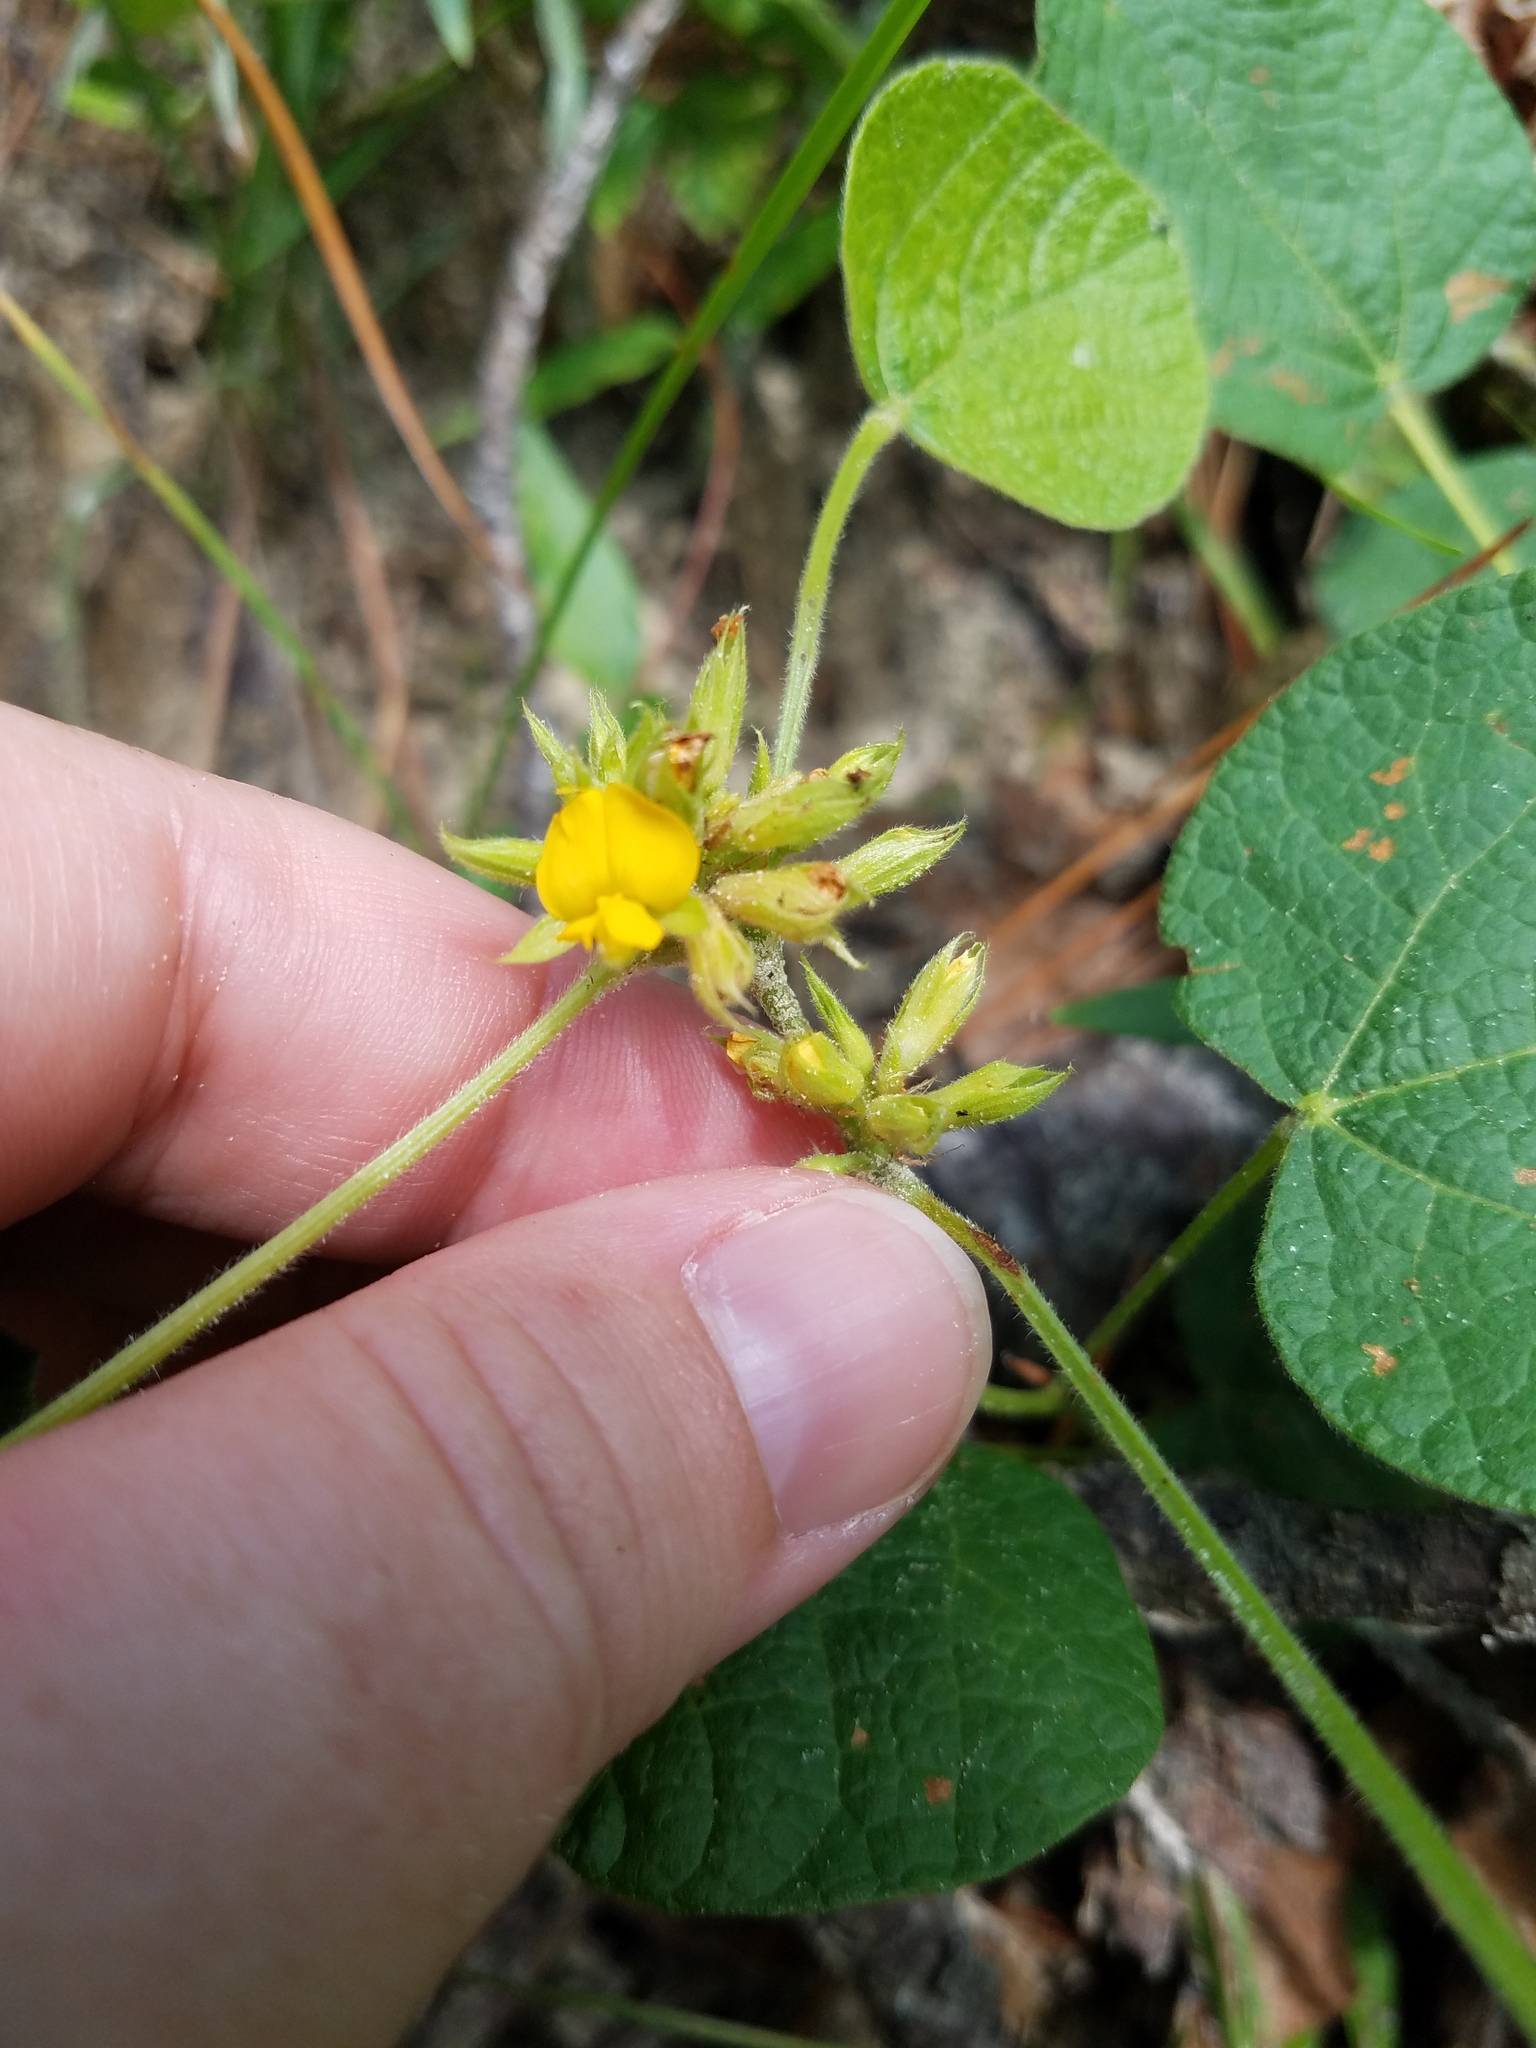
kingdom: Plantae
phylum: Tracheophyta
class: Magnoliopsida
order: Fabales
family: Fabaceae
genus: Rhynchosia
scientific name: Rhynchosia reniformis
